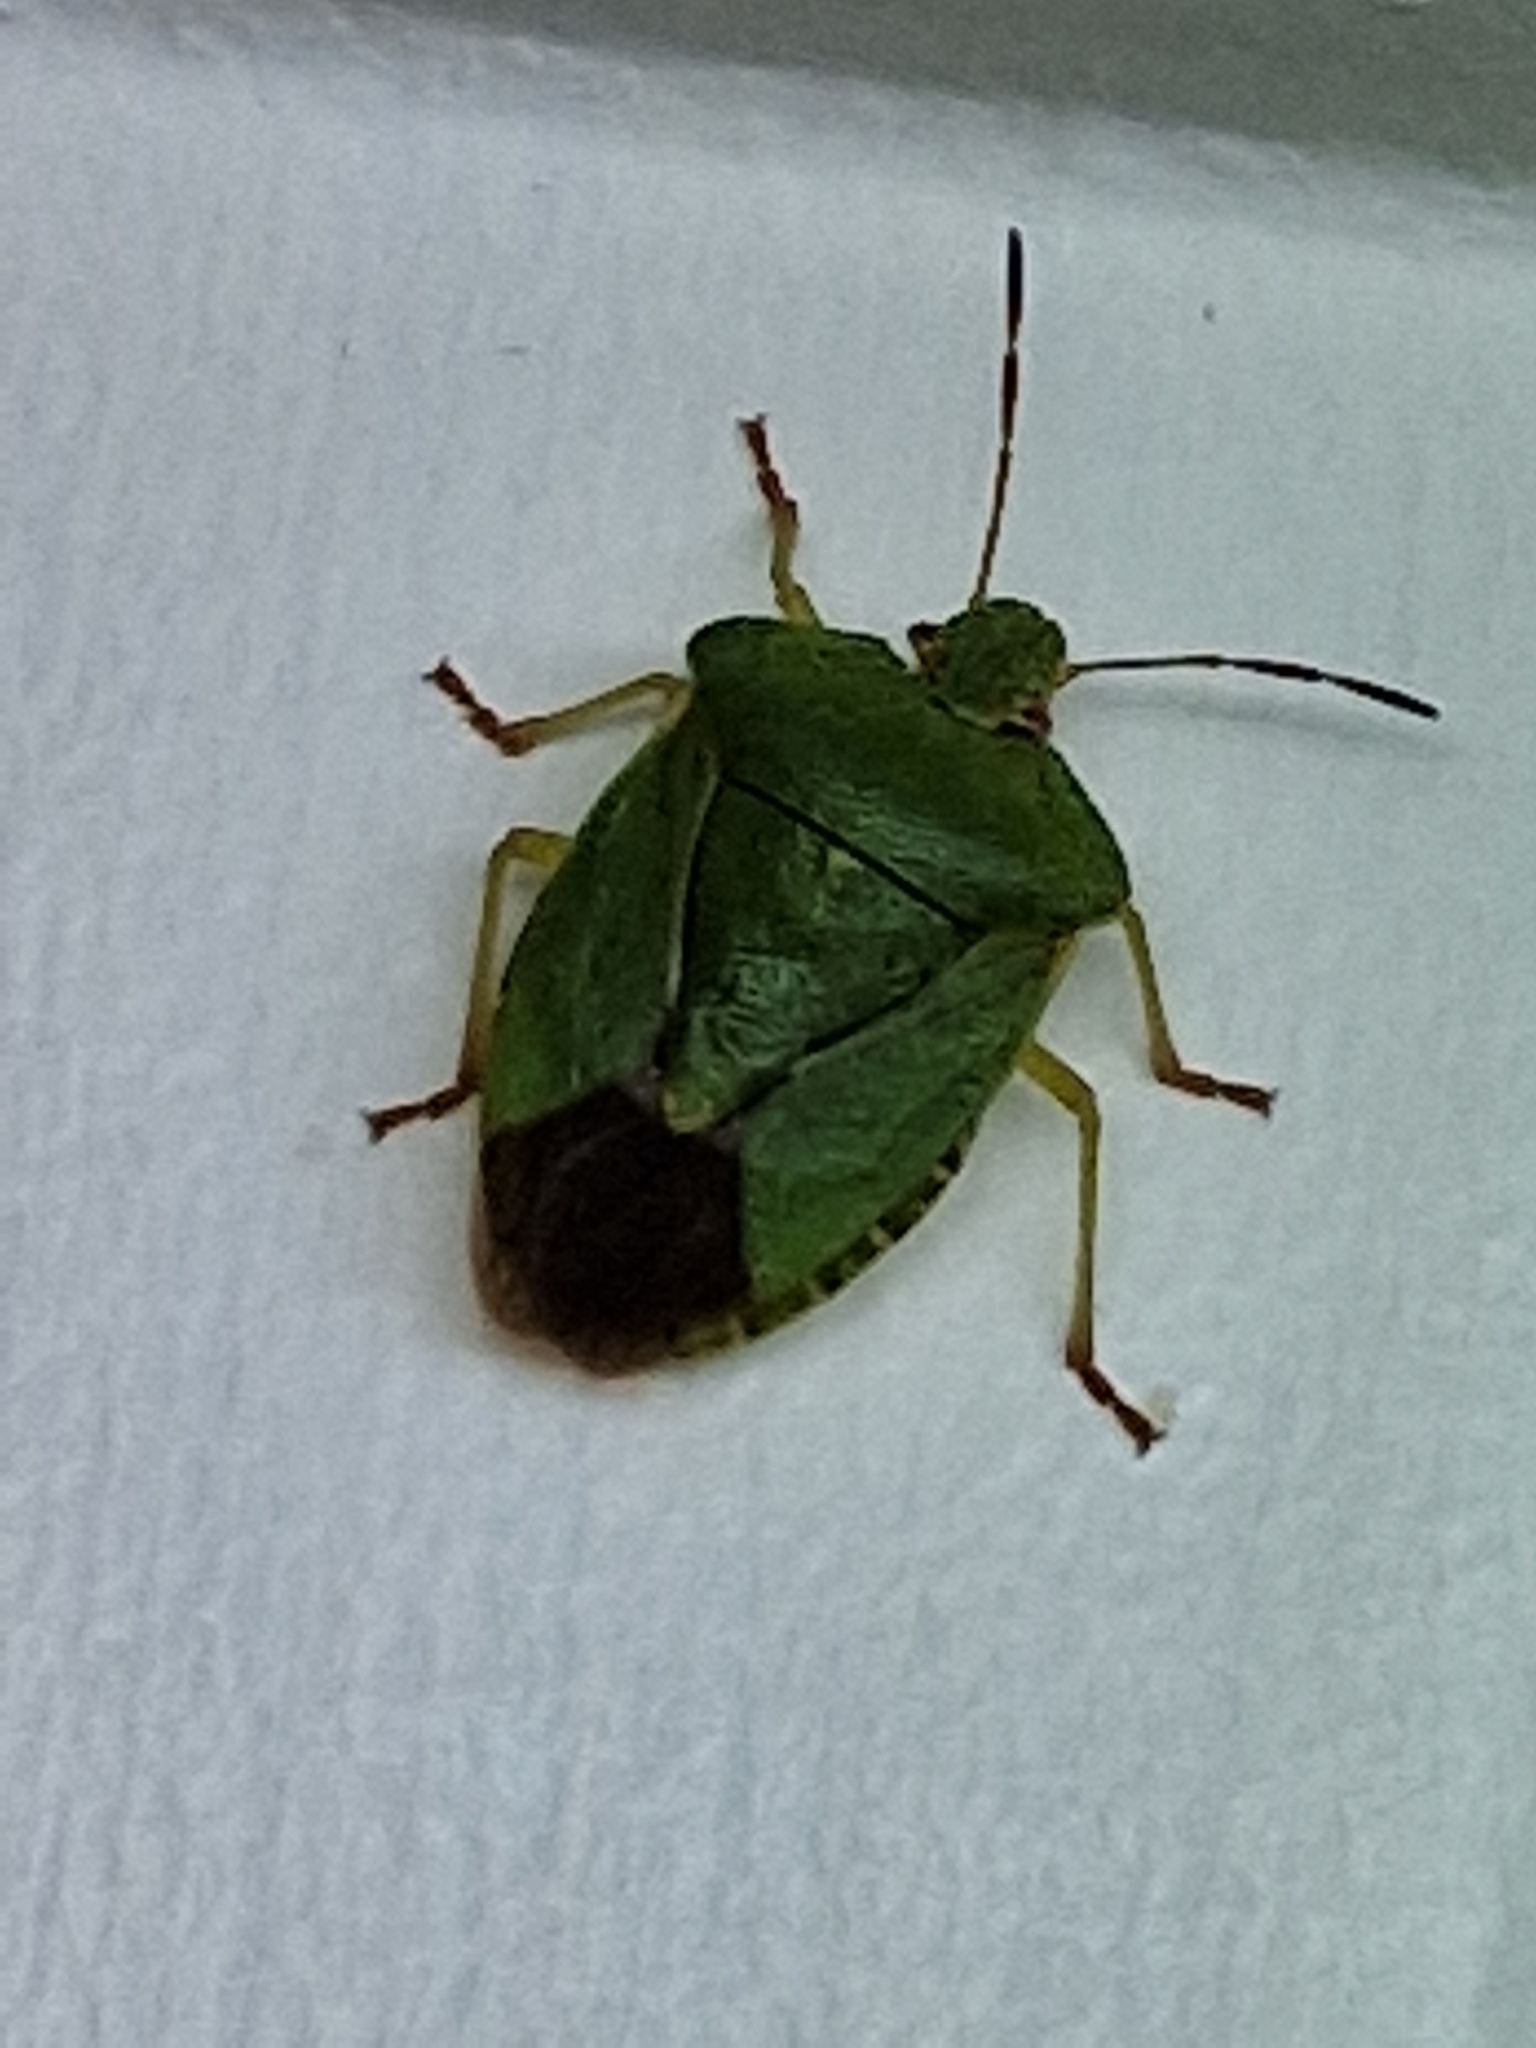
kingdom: Animalia
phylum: Arthropoda
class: Insecta
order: Hemiptera
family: Pentatomidae
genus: Palomena
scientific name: Palomena prasina
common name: Green shieldbug
